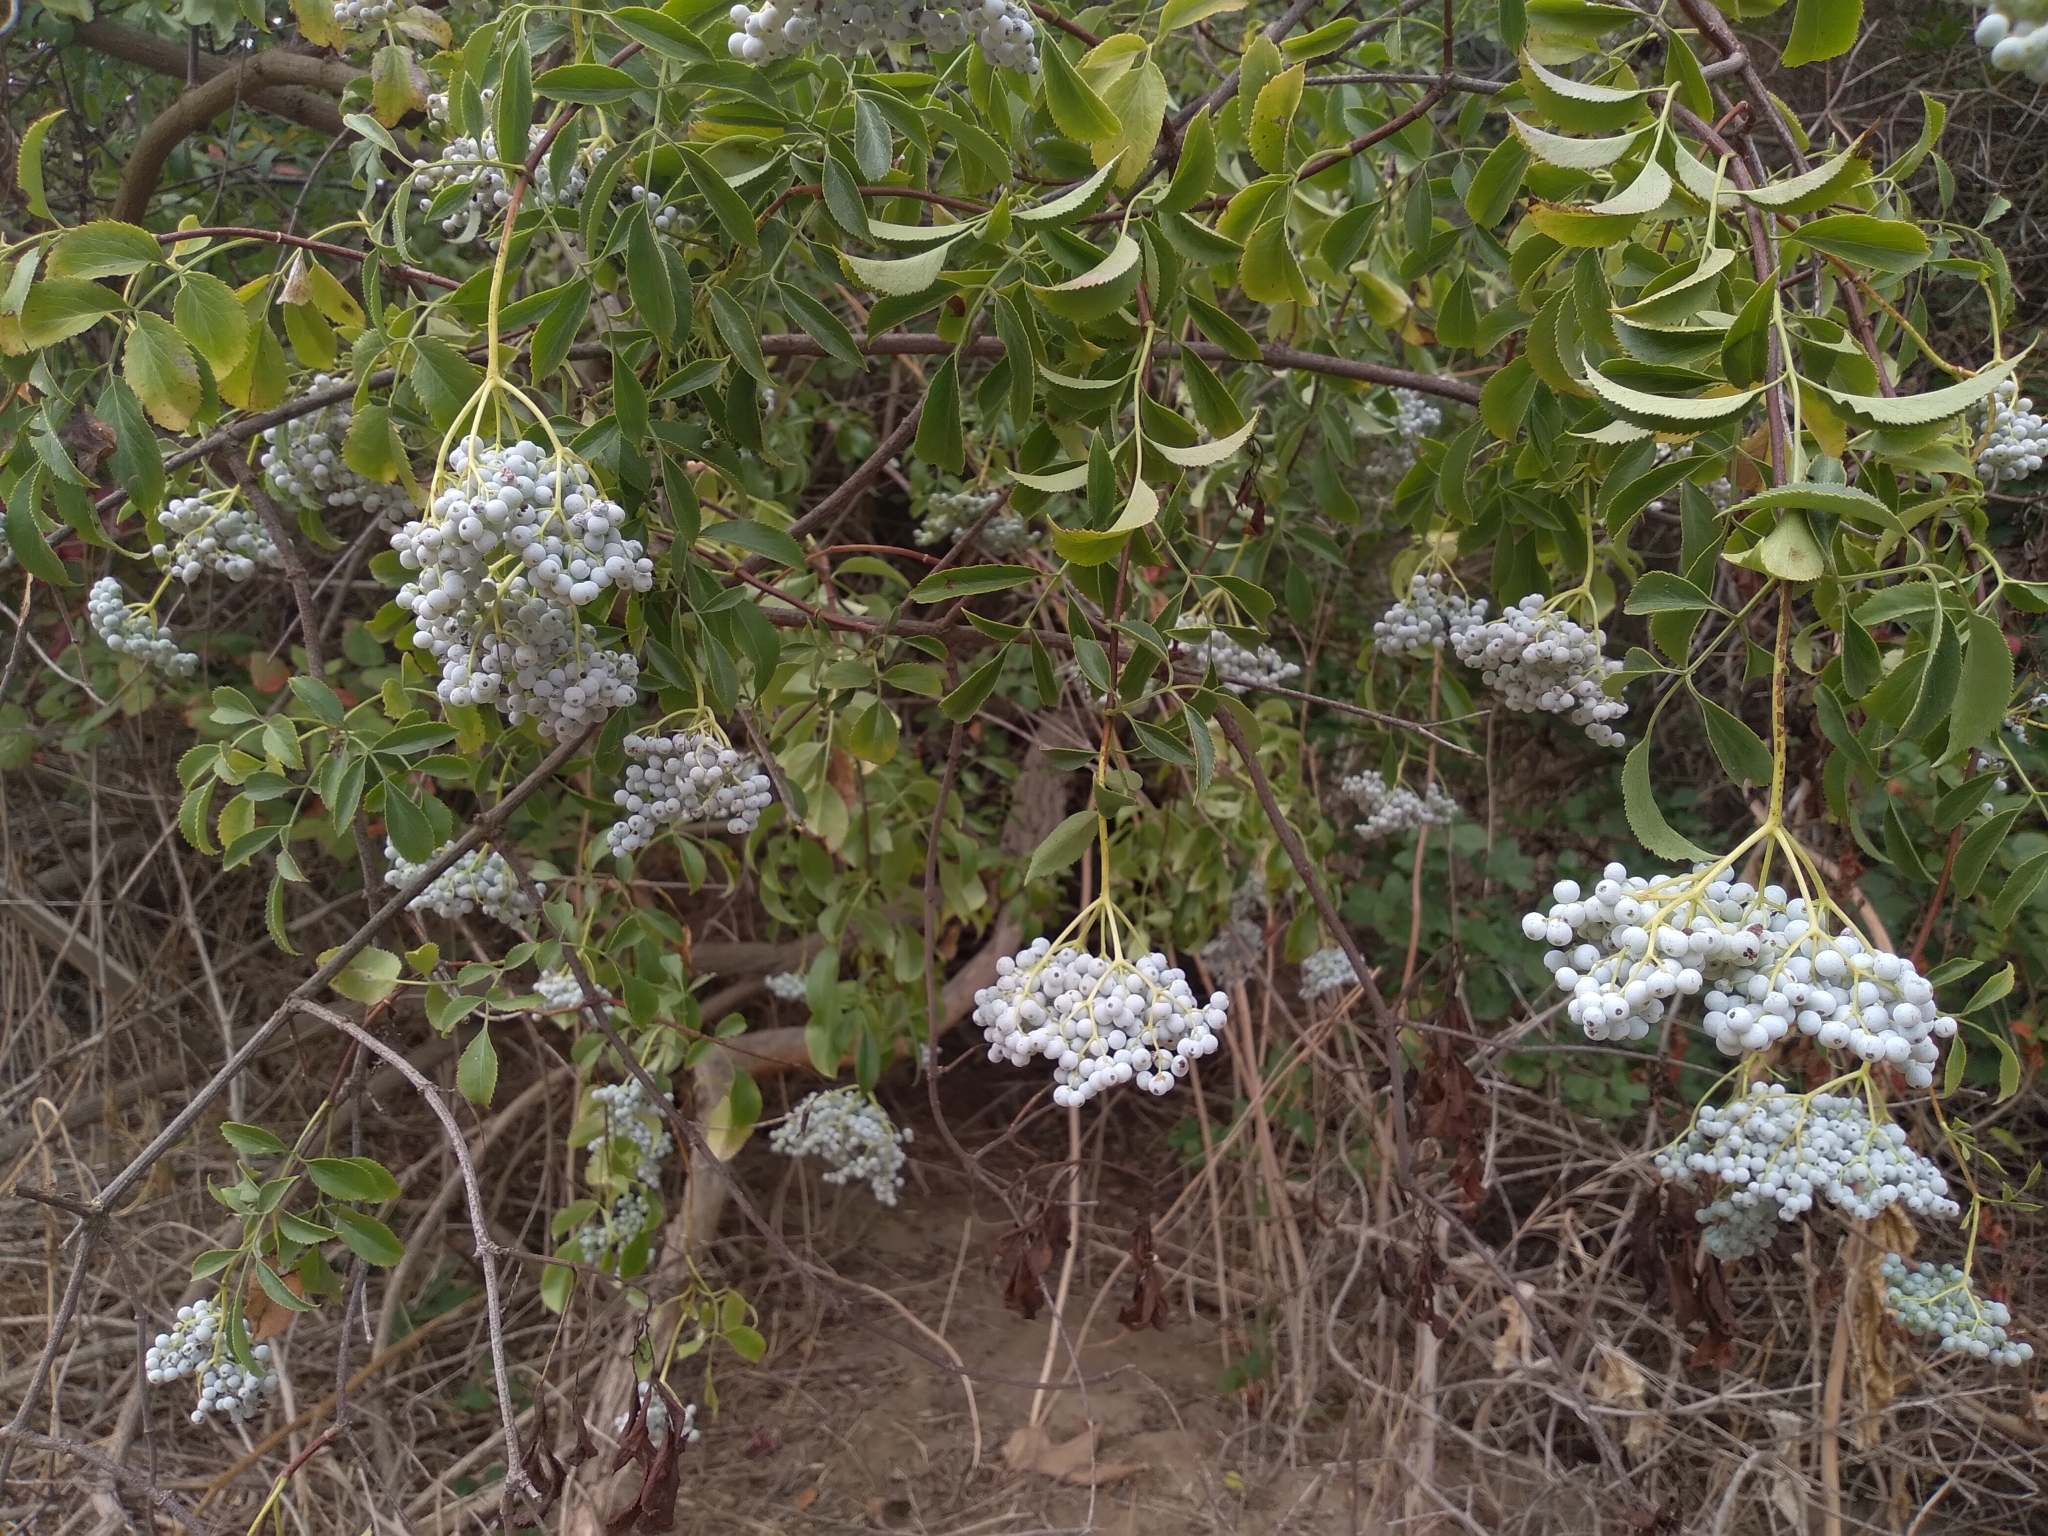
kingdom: Plantae
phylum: Tracheophyta
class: Magnoliopsida
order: Dipsacales
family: Viburnaceae
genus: Sambucus
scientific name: Sambucus cerulea
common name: Blue elder
